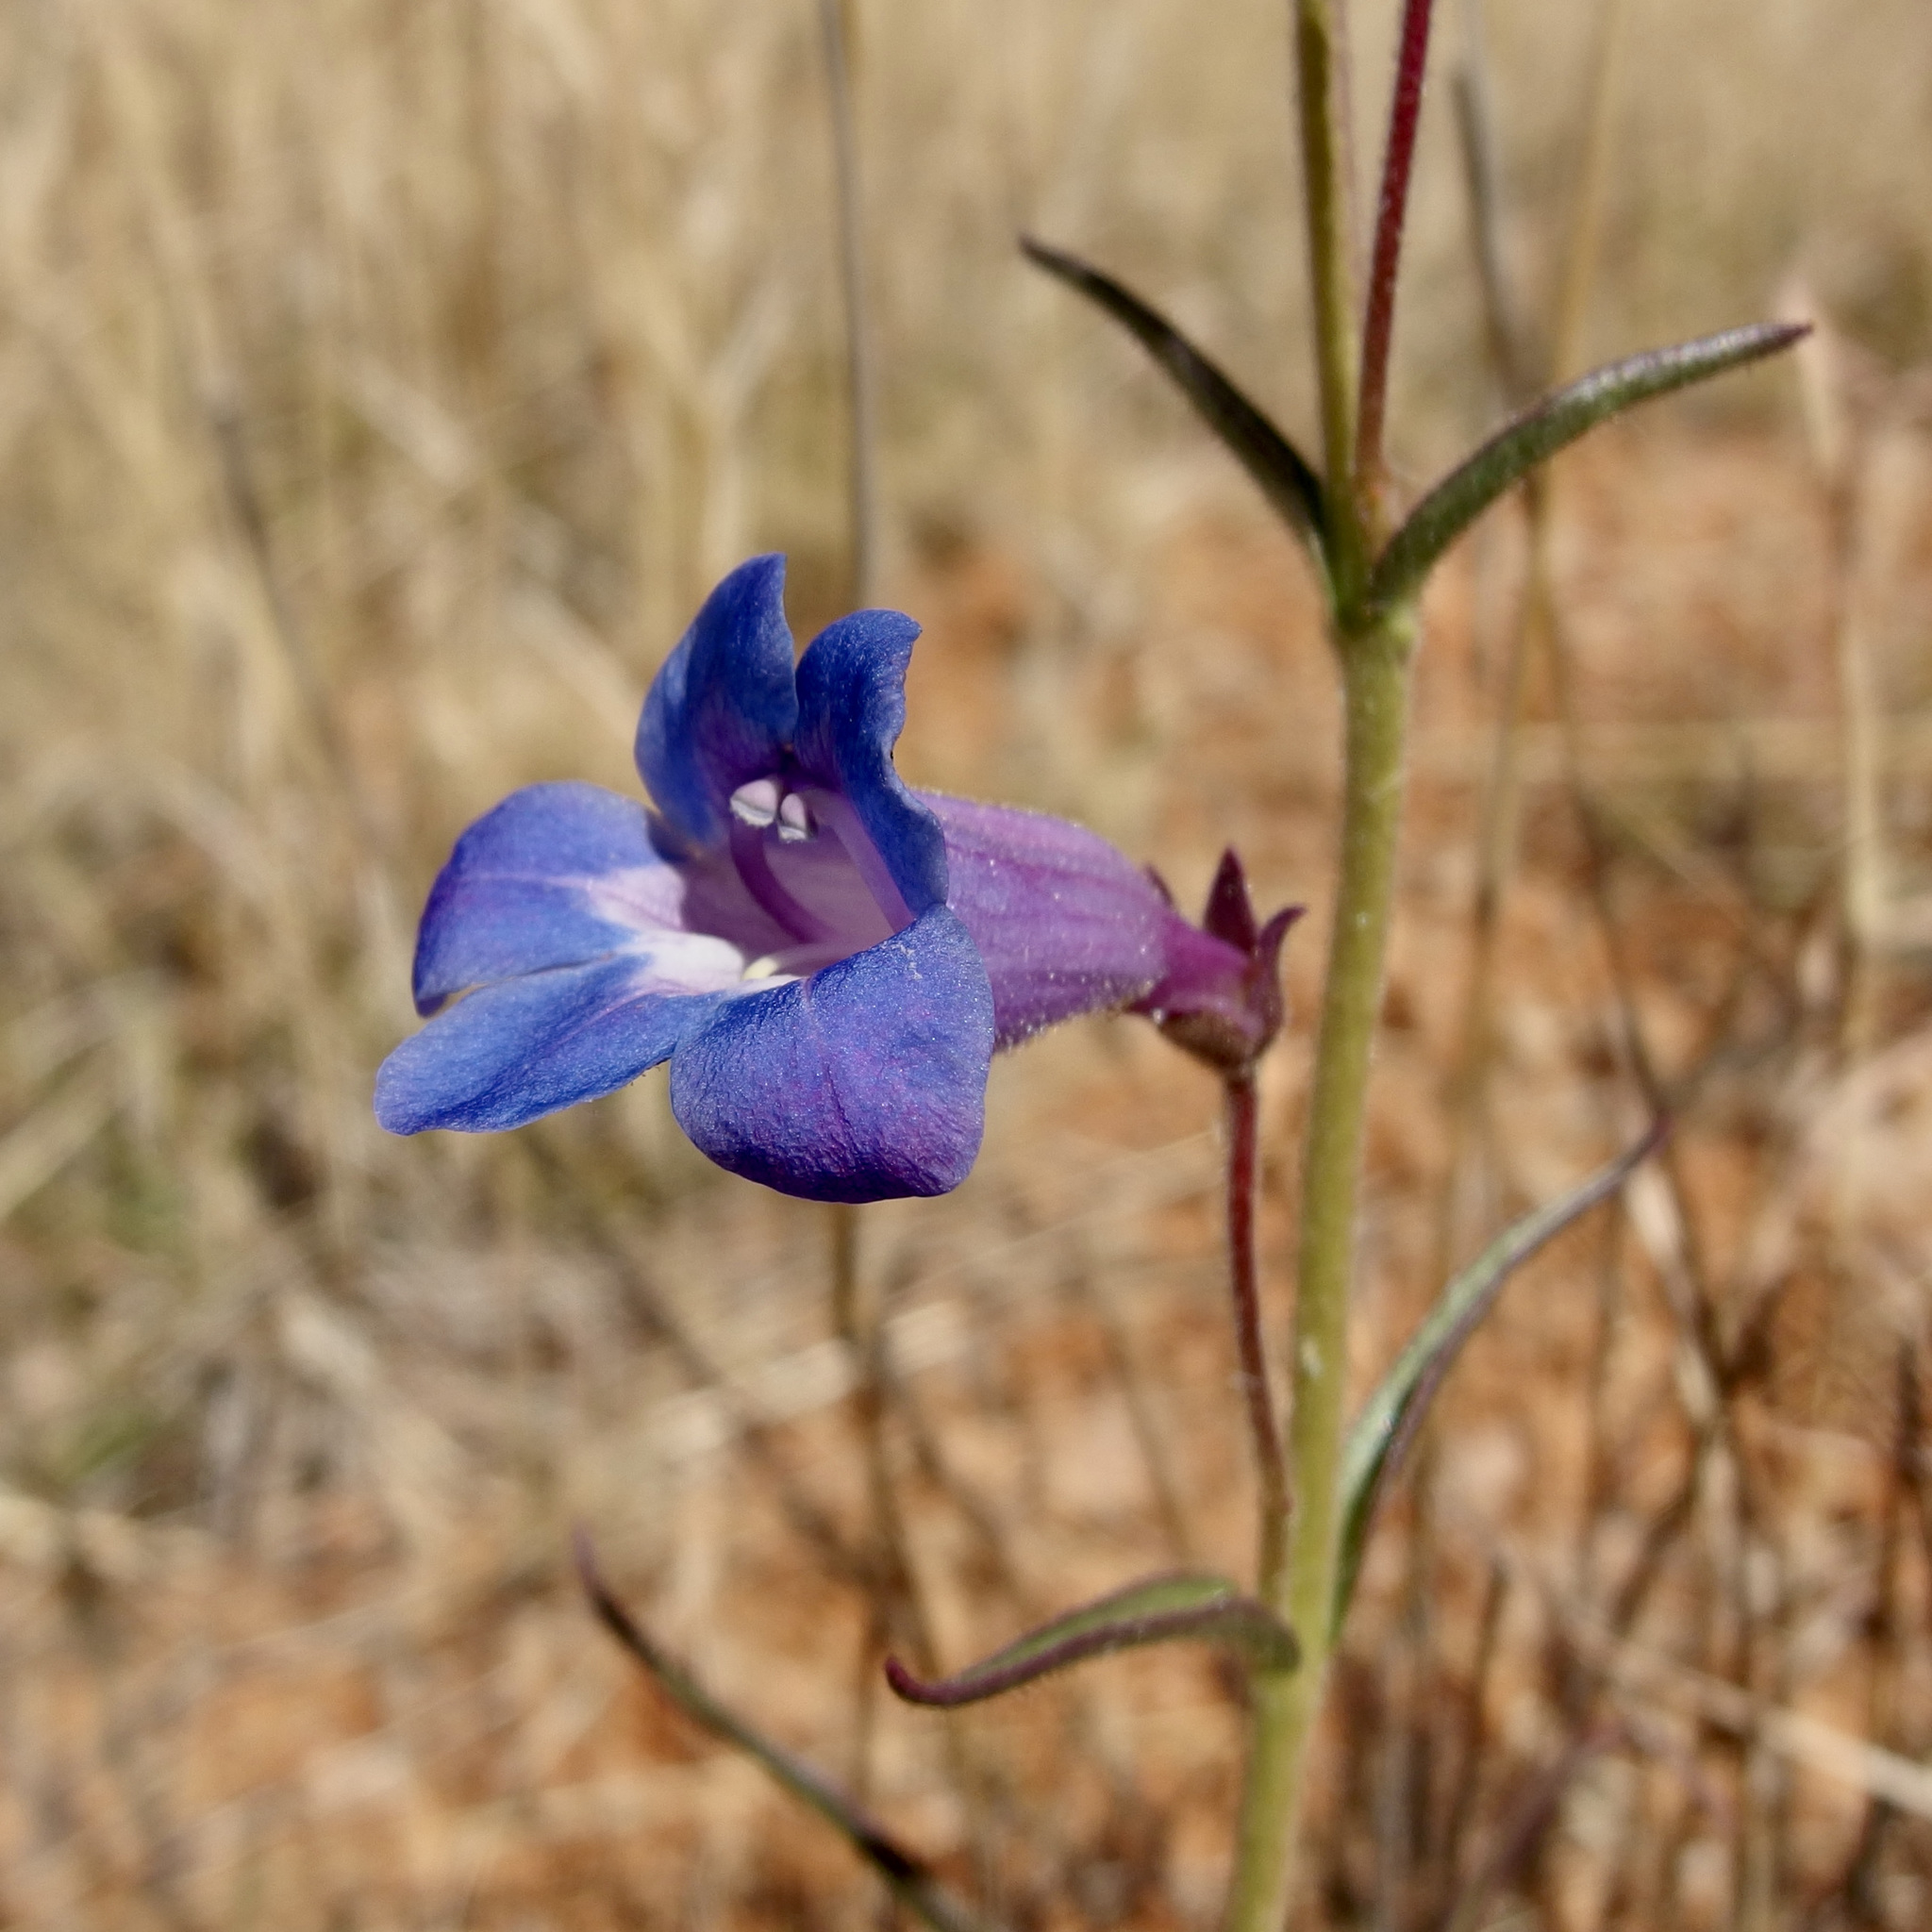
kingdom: Plantae
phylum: Tracheophyta
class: Magnoliopsida
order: Lamiales
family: Plantaginaceae
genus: Penstemon
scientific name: Penstemon dasyphyllus
